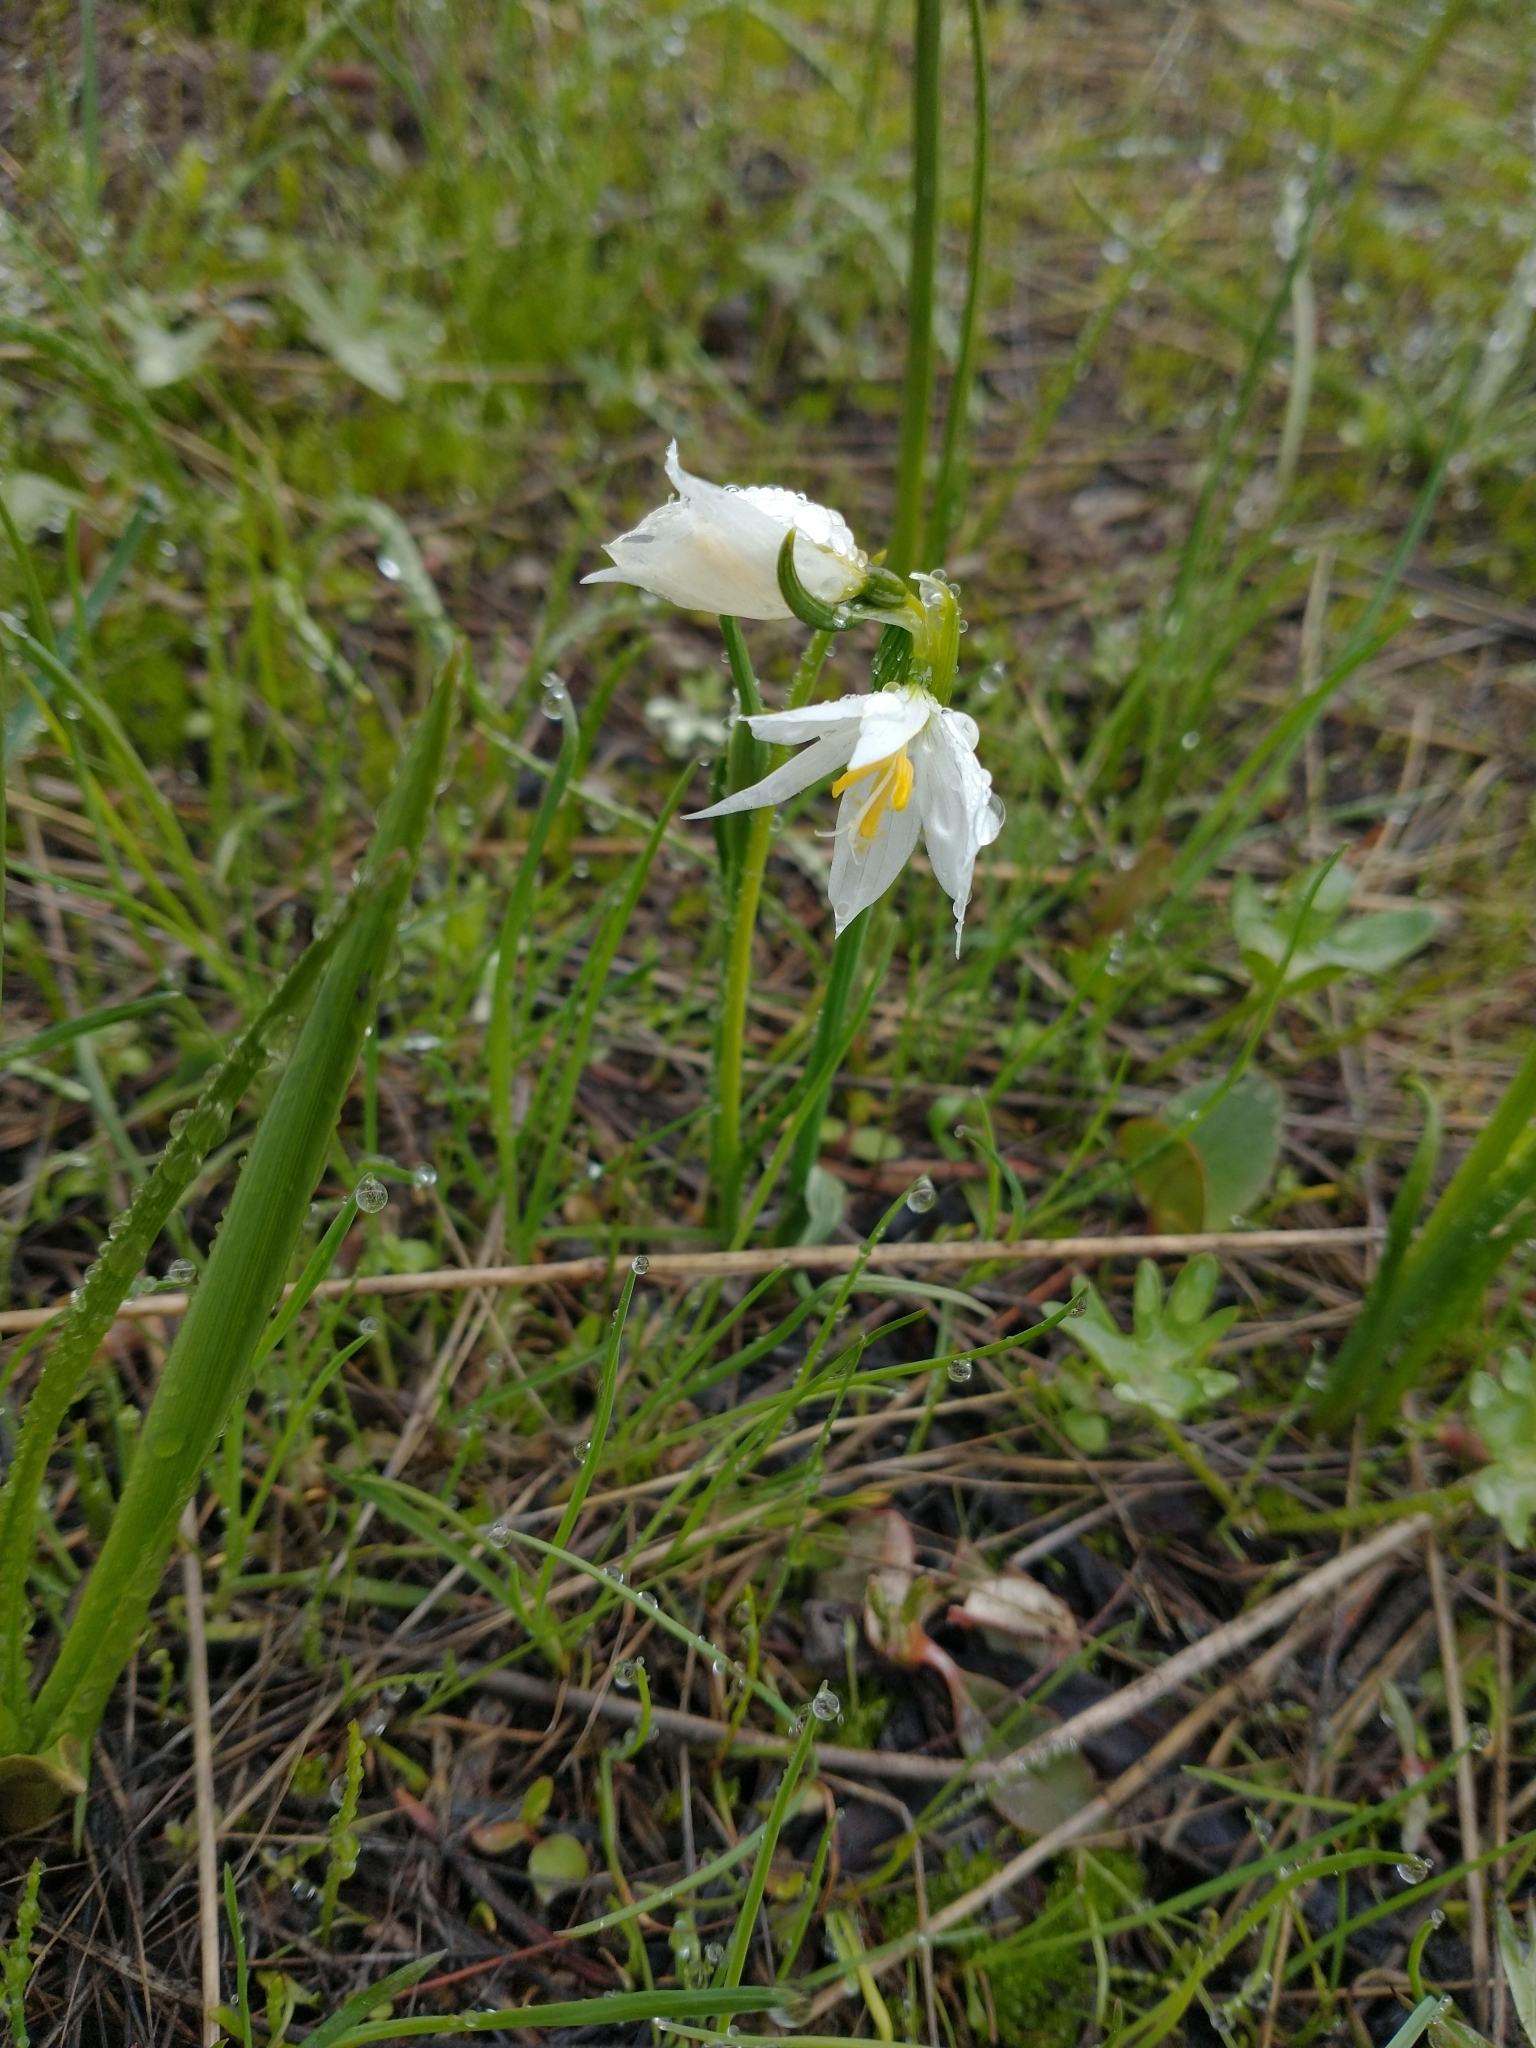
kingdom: Plantae
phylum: Tracheophyta
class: Liliopsida
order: Asparagales
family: Iridaceae
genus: Olsynium
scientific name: Olsynium douglasii
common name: Douglas' grasswidow
